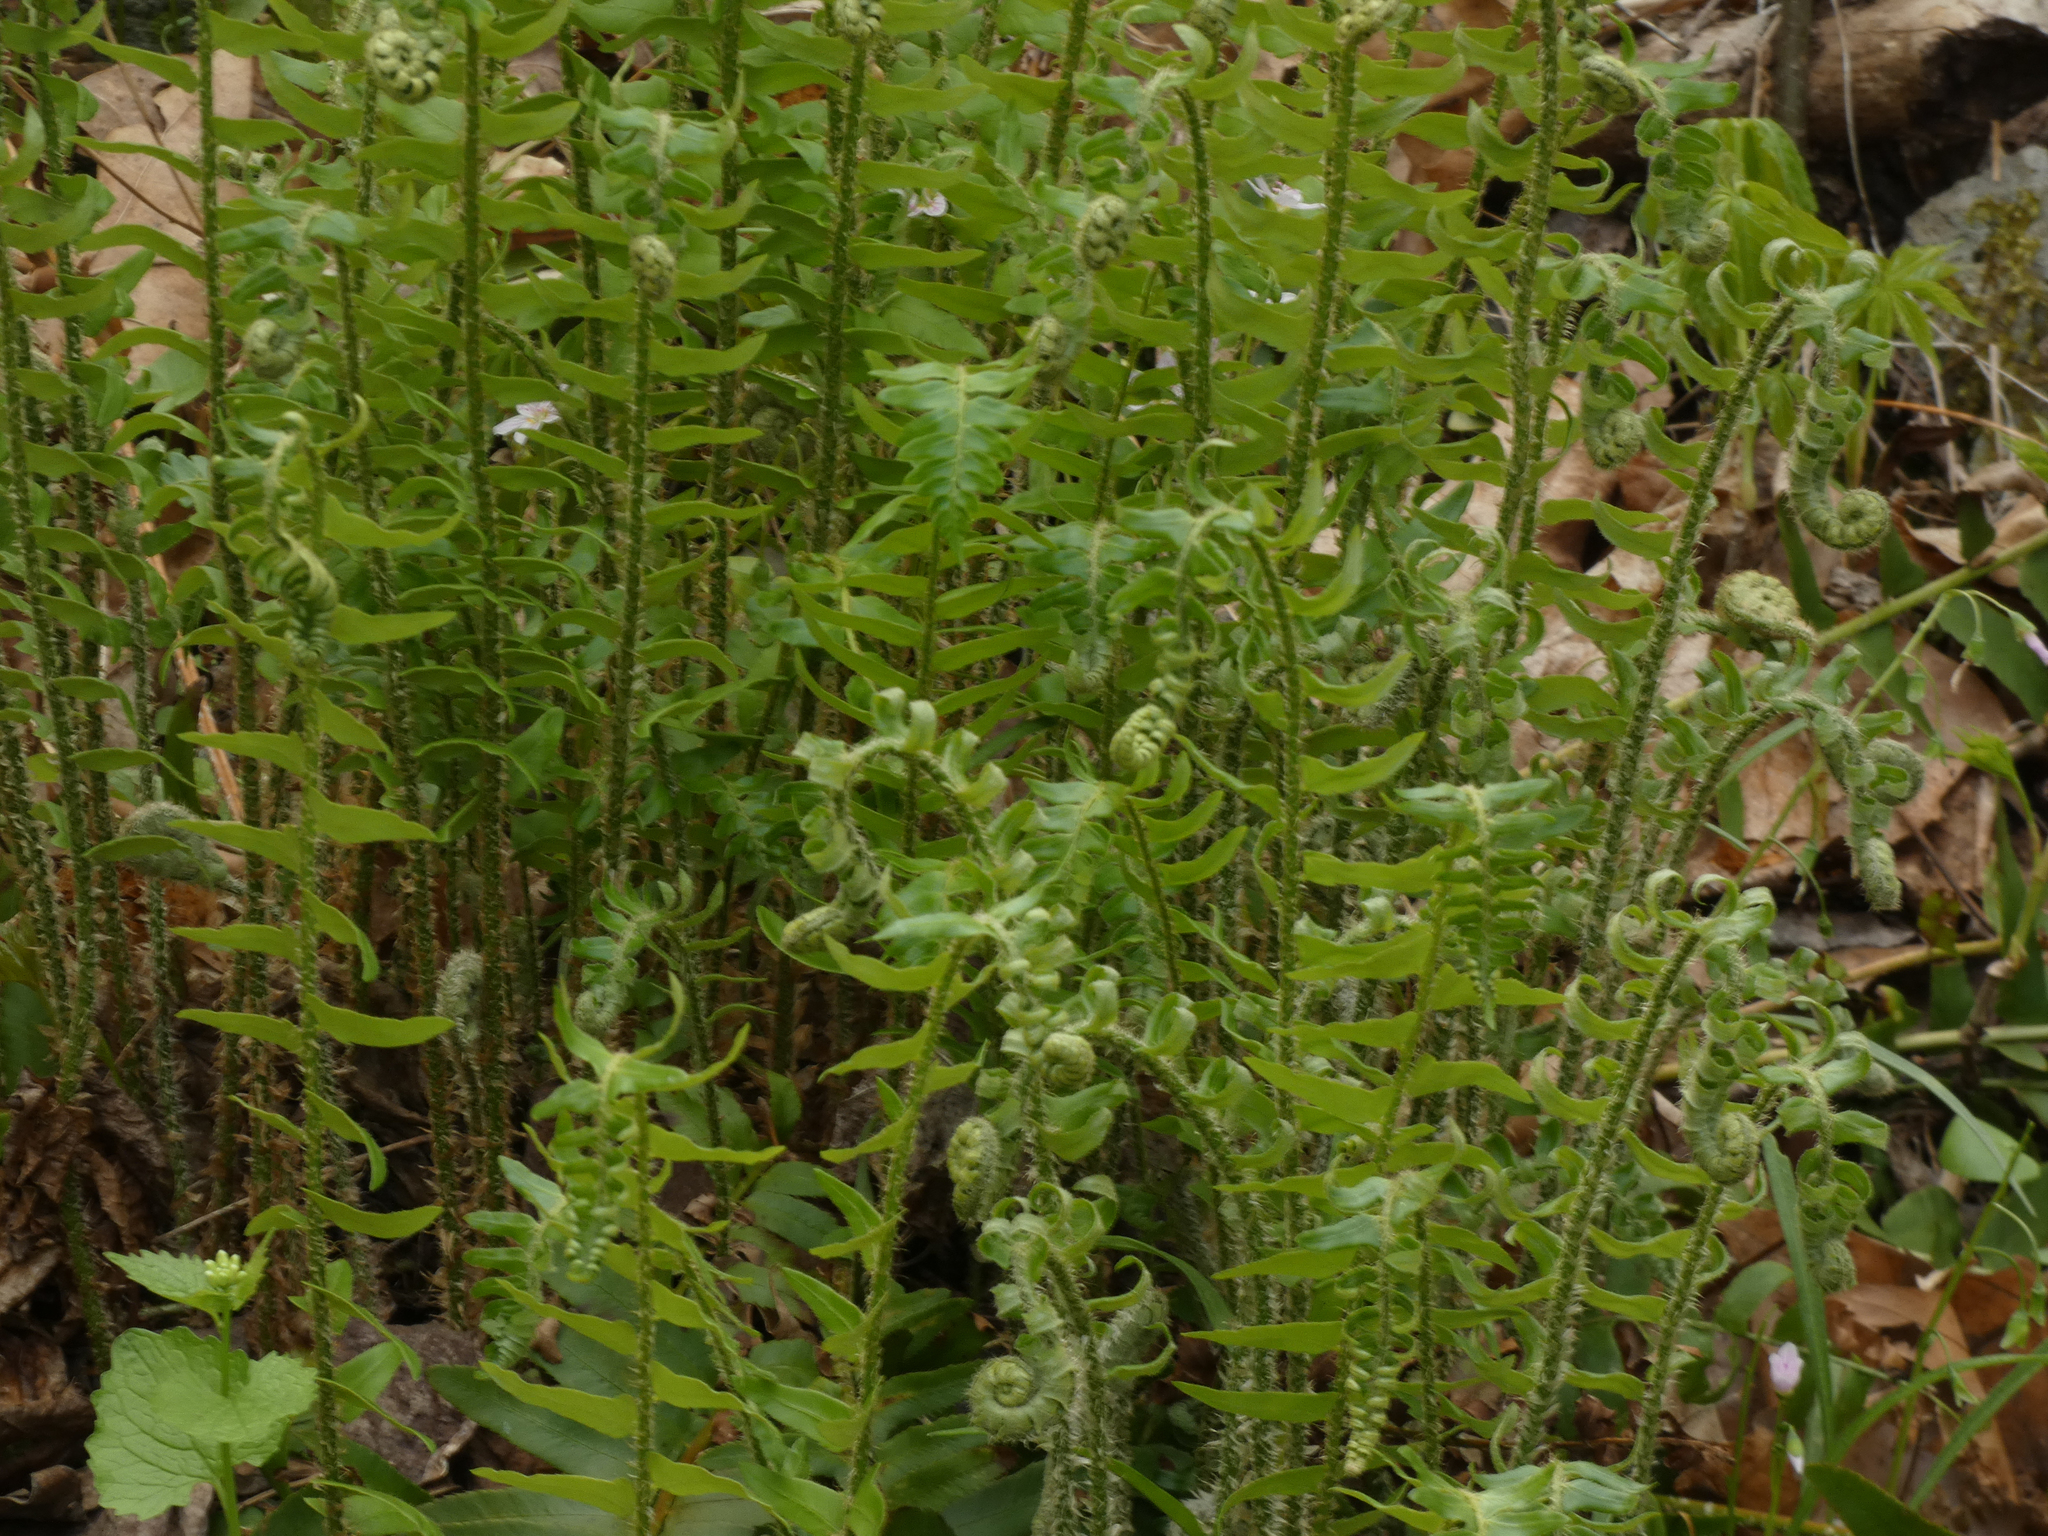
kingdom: Plantae
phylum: Tracheophyta
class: Polypodiopsida
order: Polypodiales
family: Dryopteridaceae
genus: Polystichum
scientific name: Polystichum acrostichoides
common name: Christmas fern
